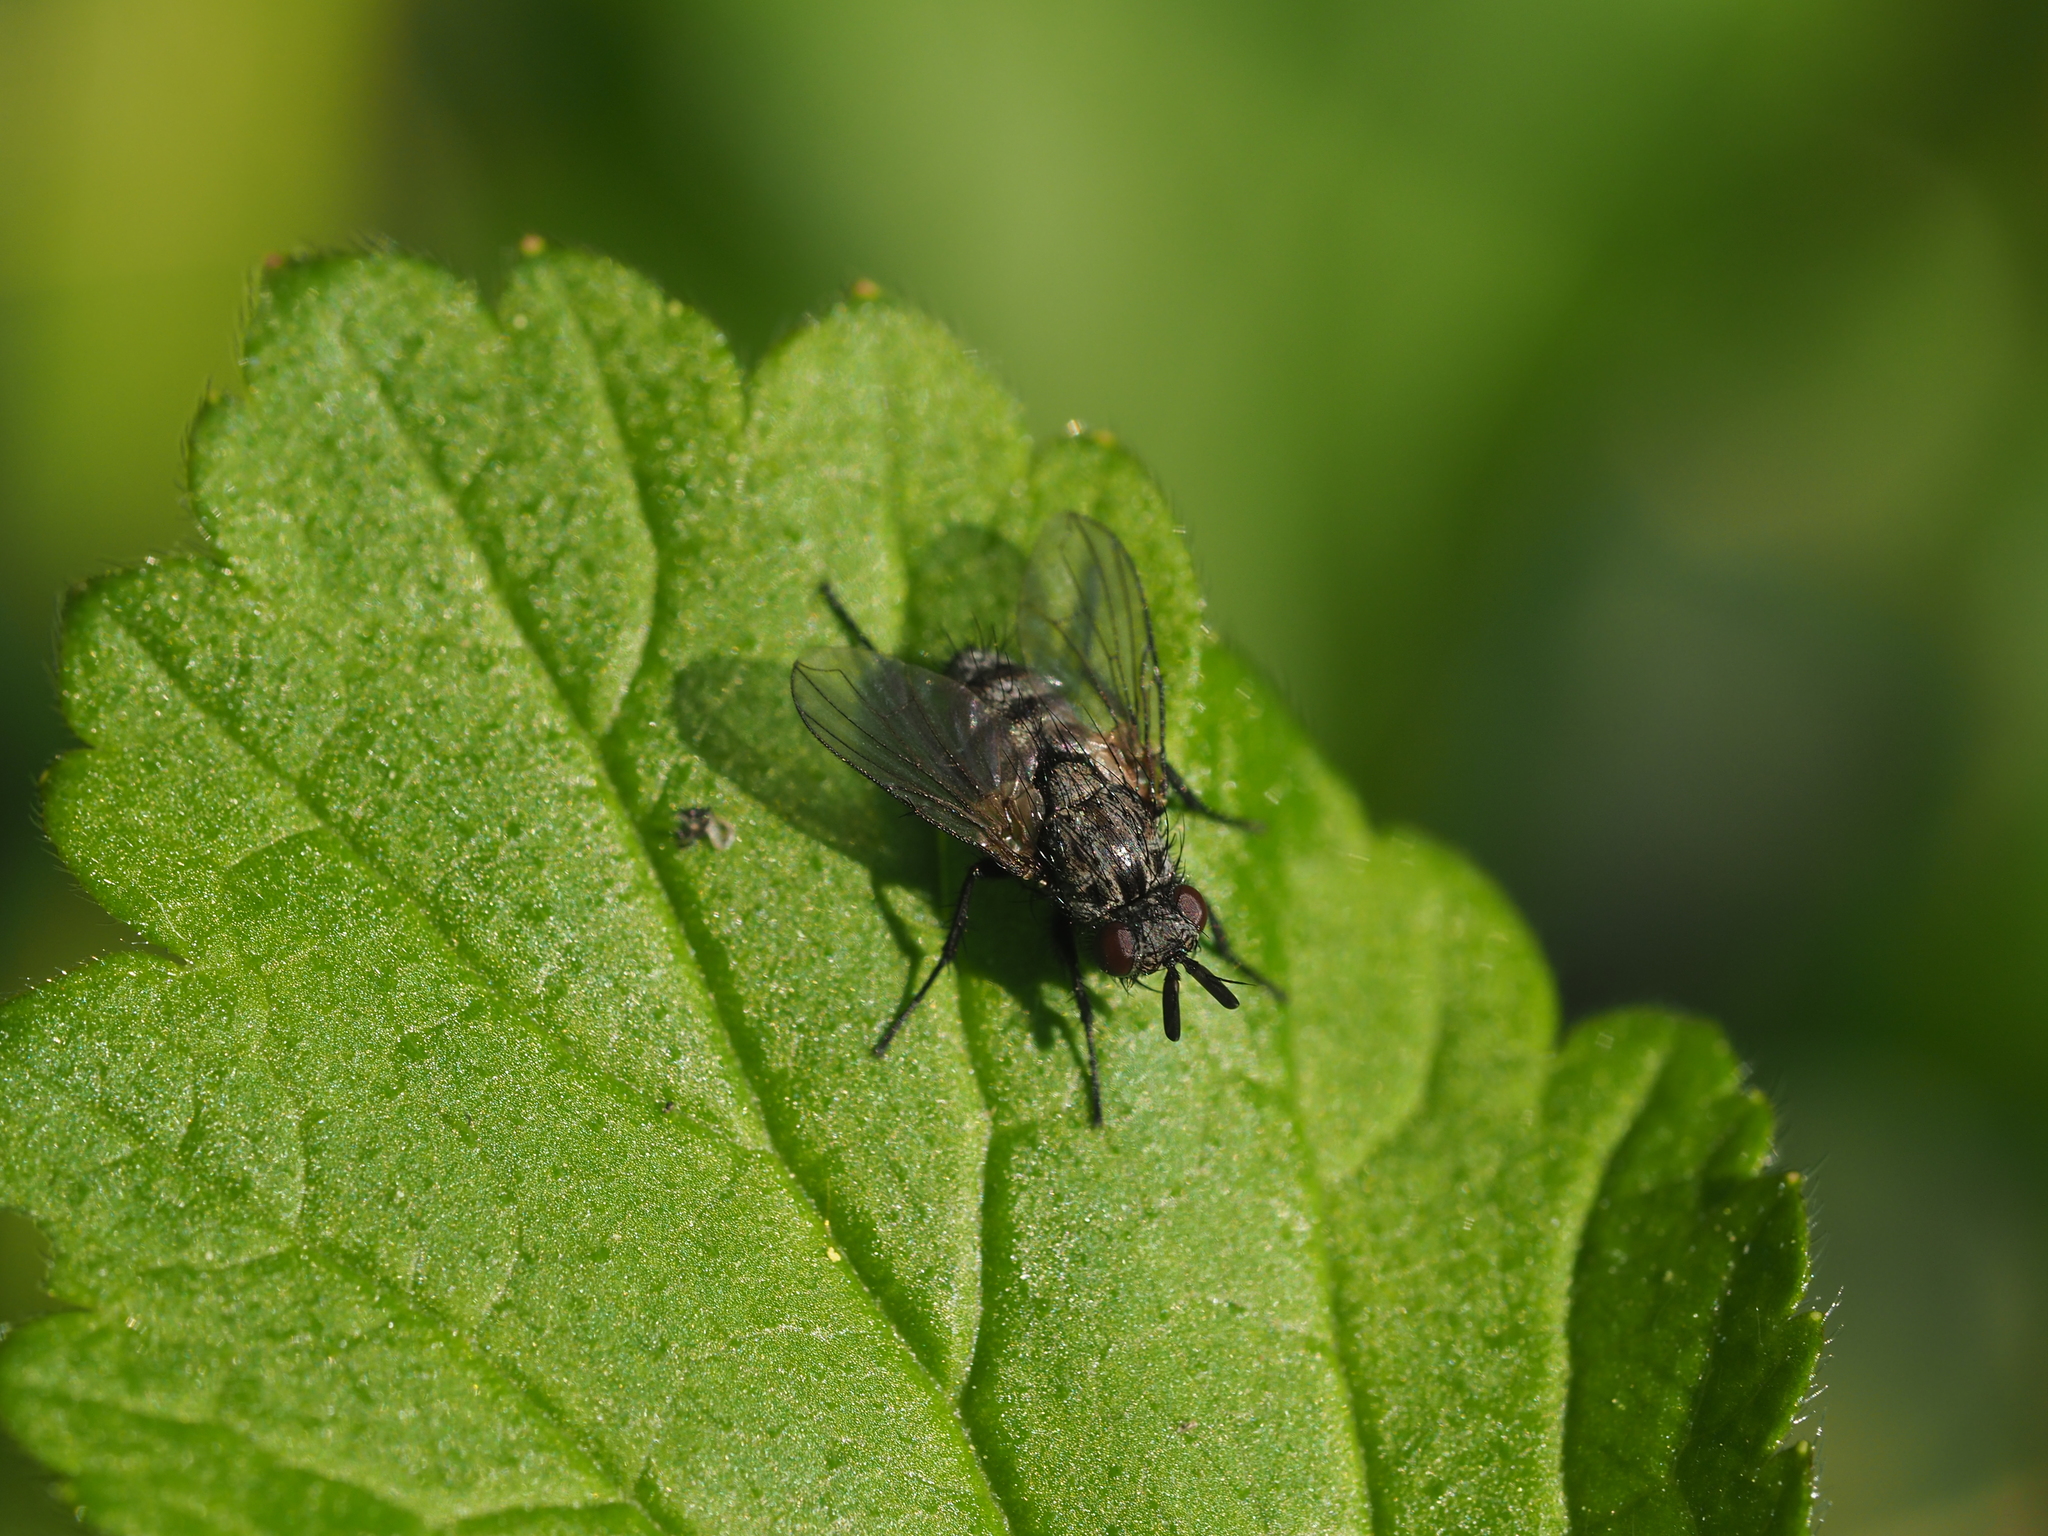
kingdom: Animalia
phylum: Arthropoda
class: Insecta
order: Diptera
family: Tachinidae
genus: Triarthria
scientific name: Triarthria setipennis
